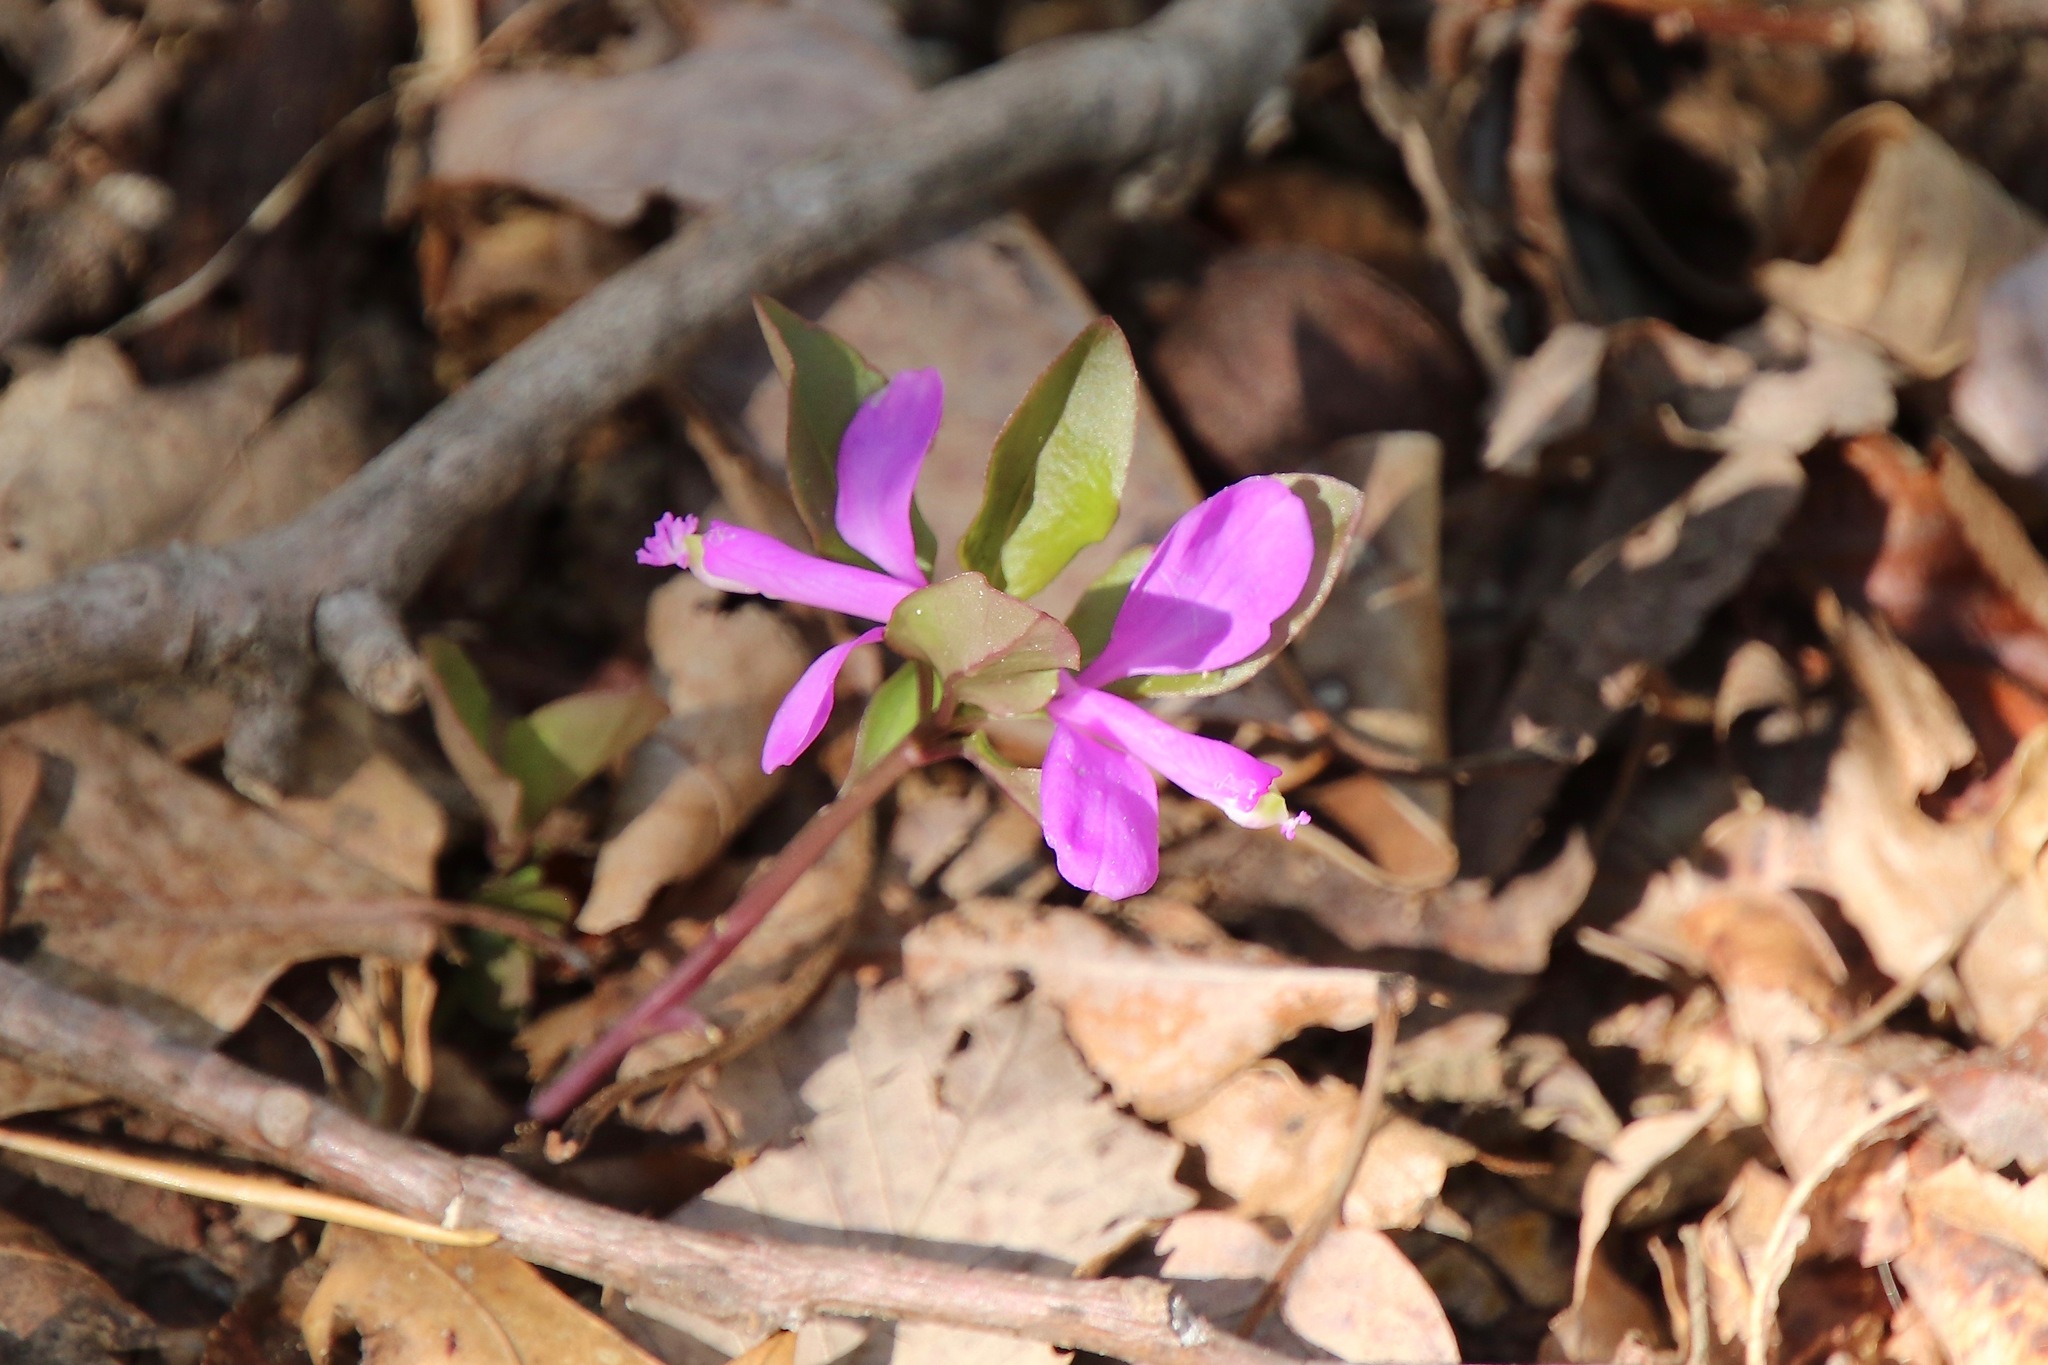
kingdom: Plantae
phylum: Tracheophyta
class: Magnoliopsida
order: Fabales
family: Polygalaceae
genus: Polygaloides
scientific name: Polygaloides paucifolia
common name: Bird-on-the-wing
